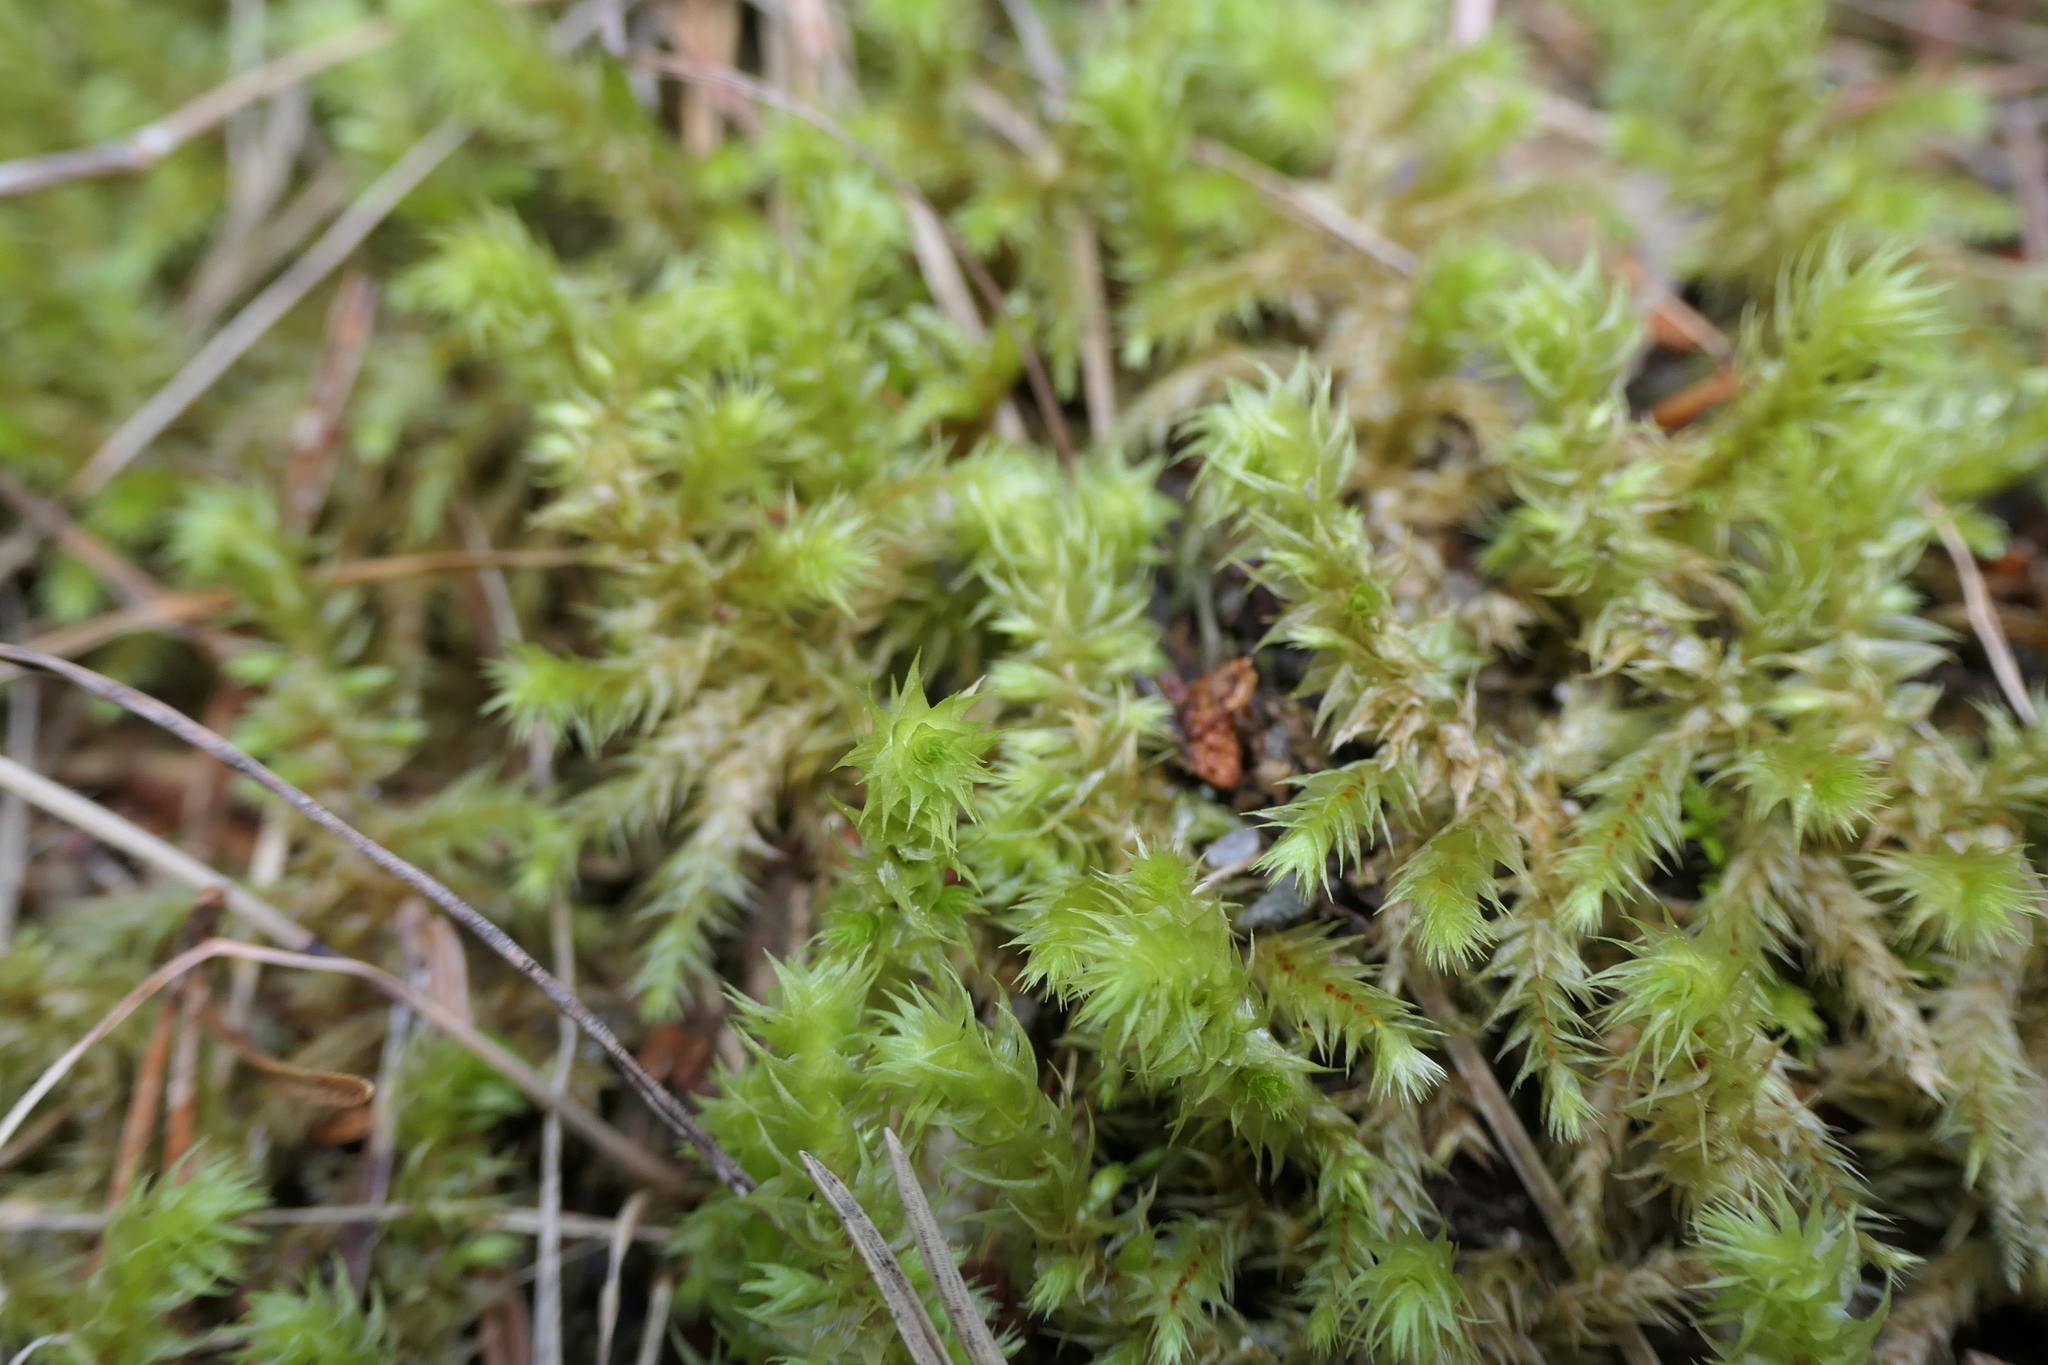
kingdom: Plantae
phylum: Bryophyta
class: Bryopsida
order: Hypnales
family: Hylocomiaceae
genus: Hylocomiadelphus
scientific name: Hylocomiadelphus triquetrus
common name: Rough goose neck moss
